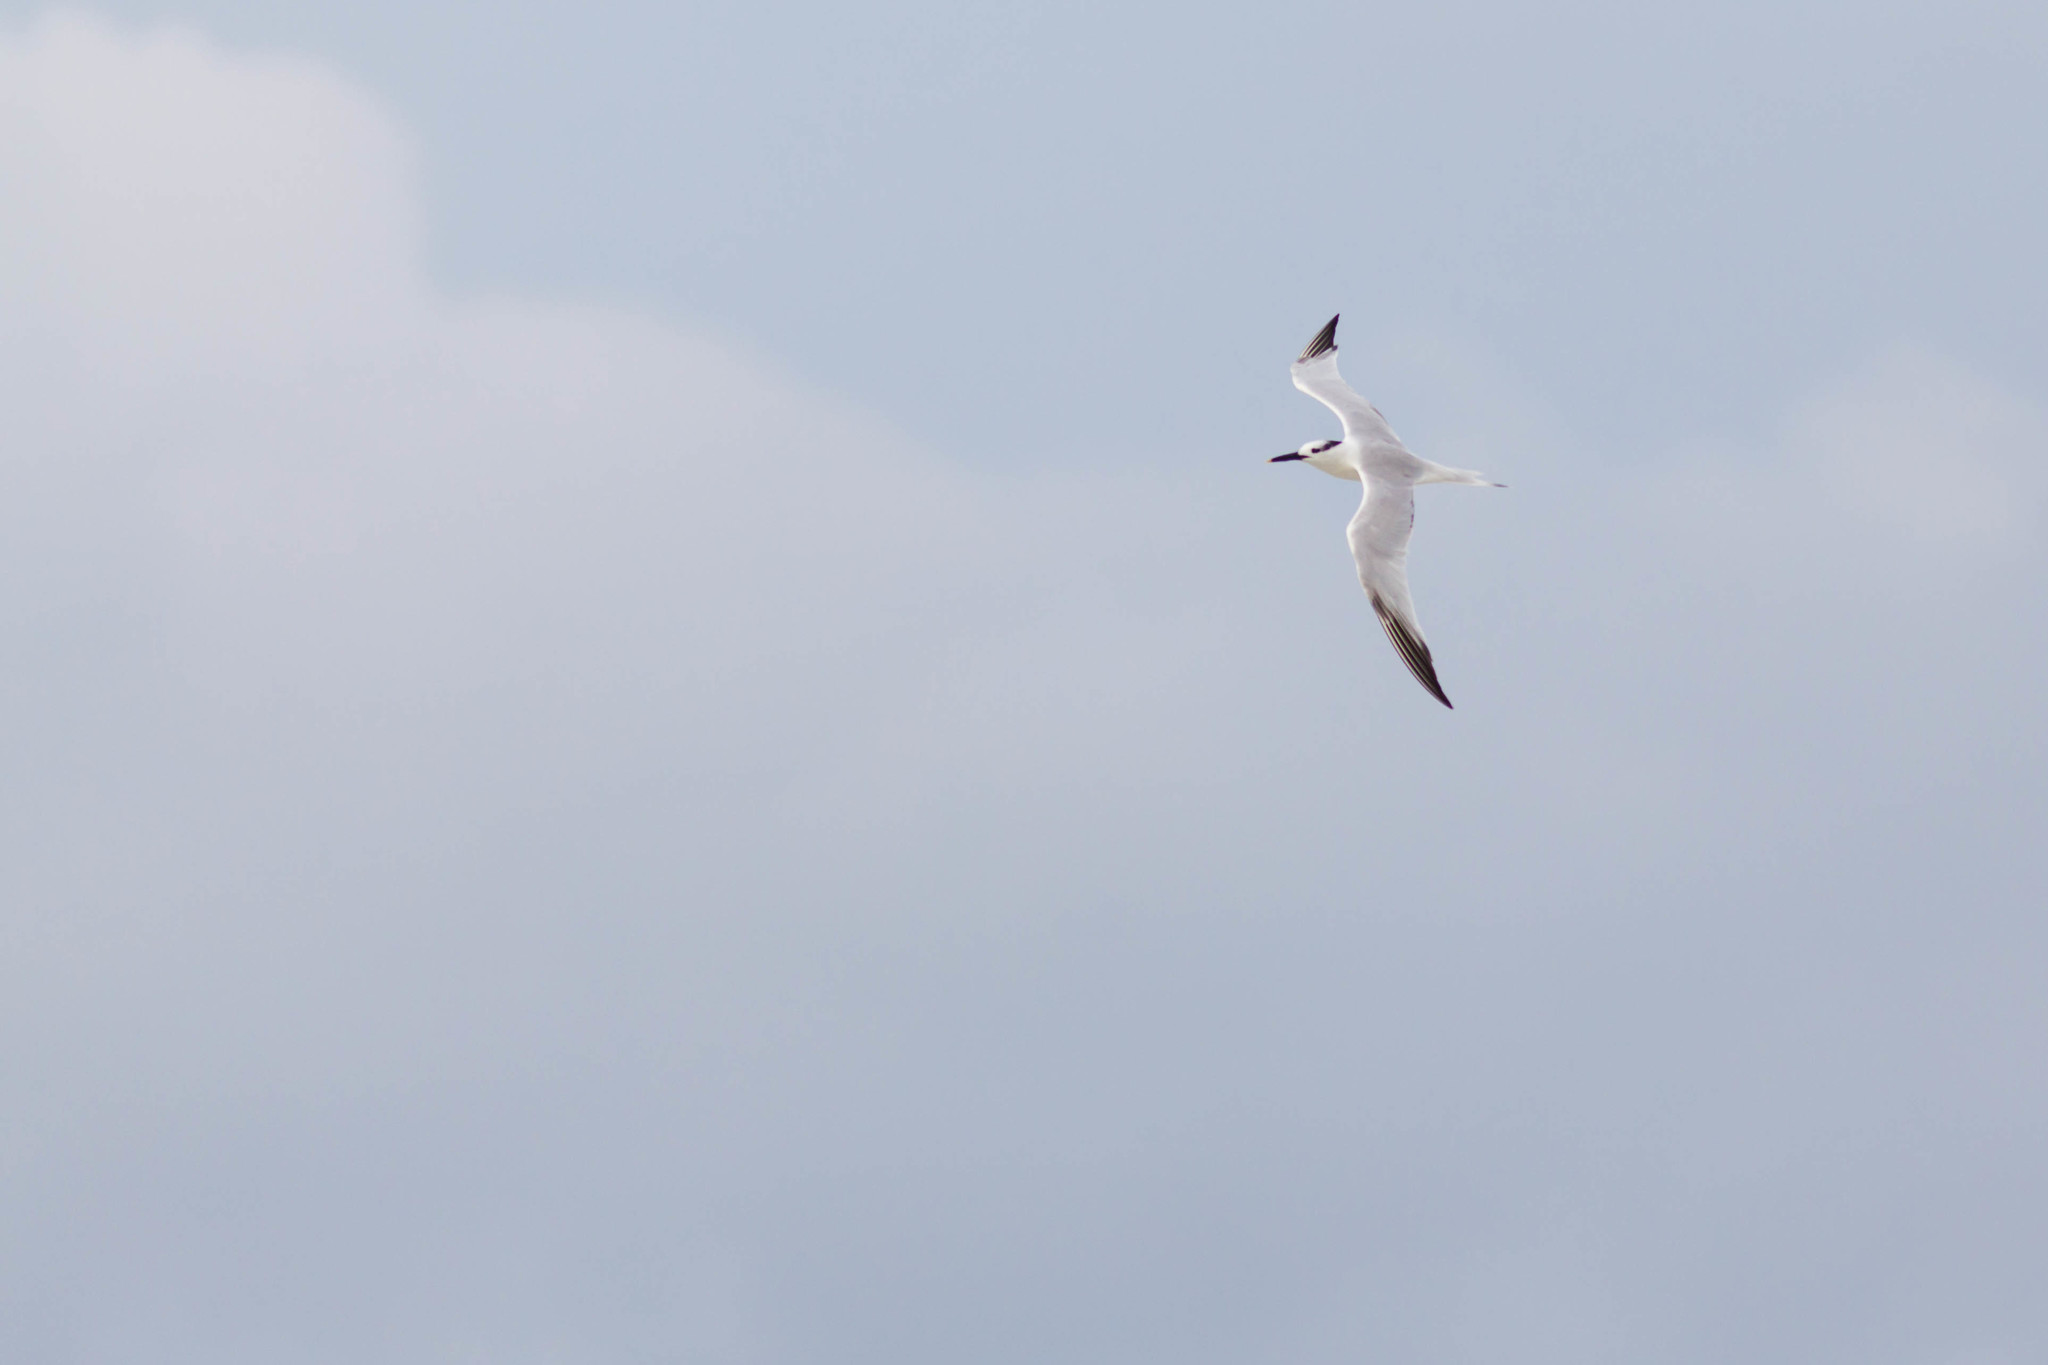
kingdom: Animalia
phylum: Chordata
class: Aves
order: Charadriiformes
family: Laridae
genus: Thalasseus
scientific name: Thalasseus sandvicensis
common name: Sandwich tern
